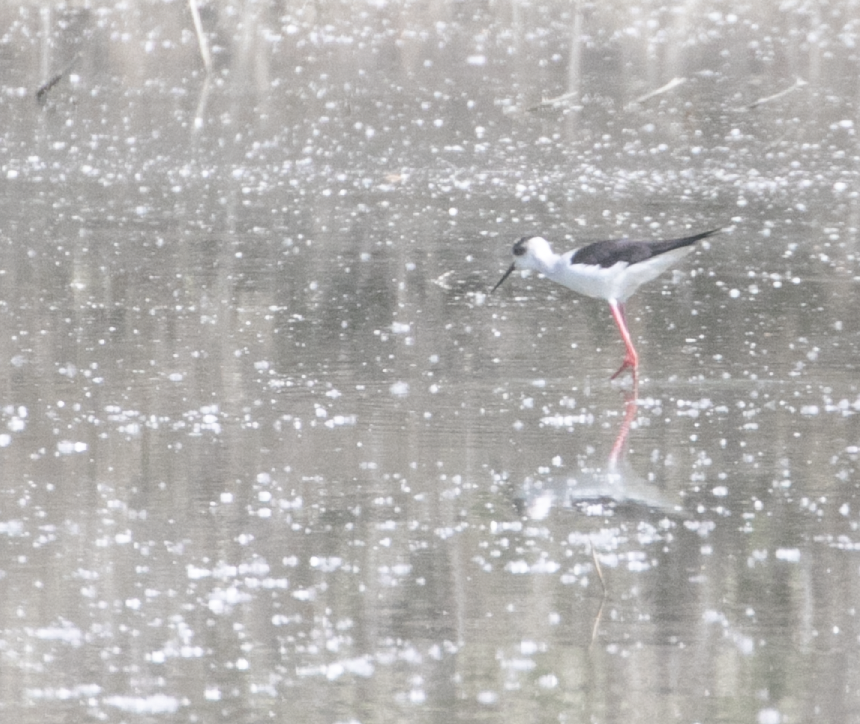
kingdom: Animalia
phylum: Chordata
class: Aves
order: Charadriiformes
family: Recurvirostridae
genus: Himantopus
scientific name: Himantopus himantopus
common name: Black-winged stilt
